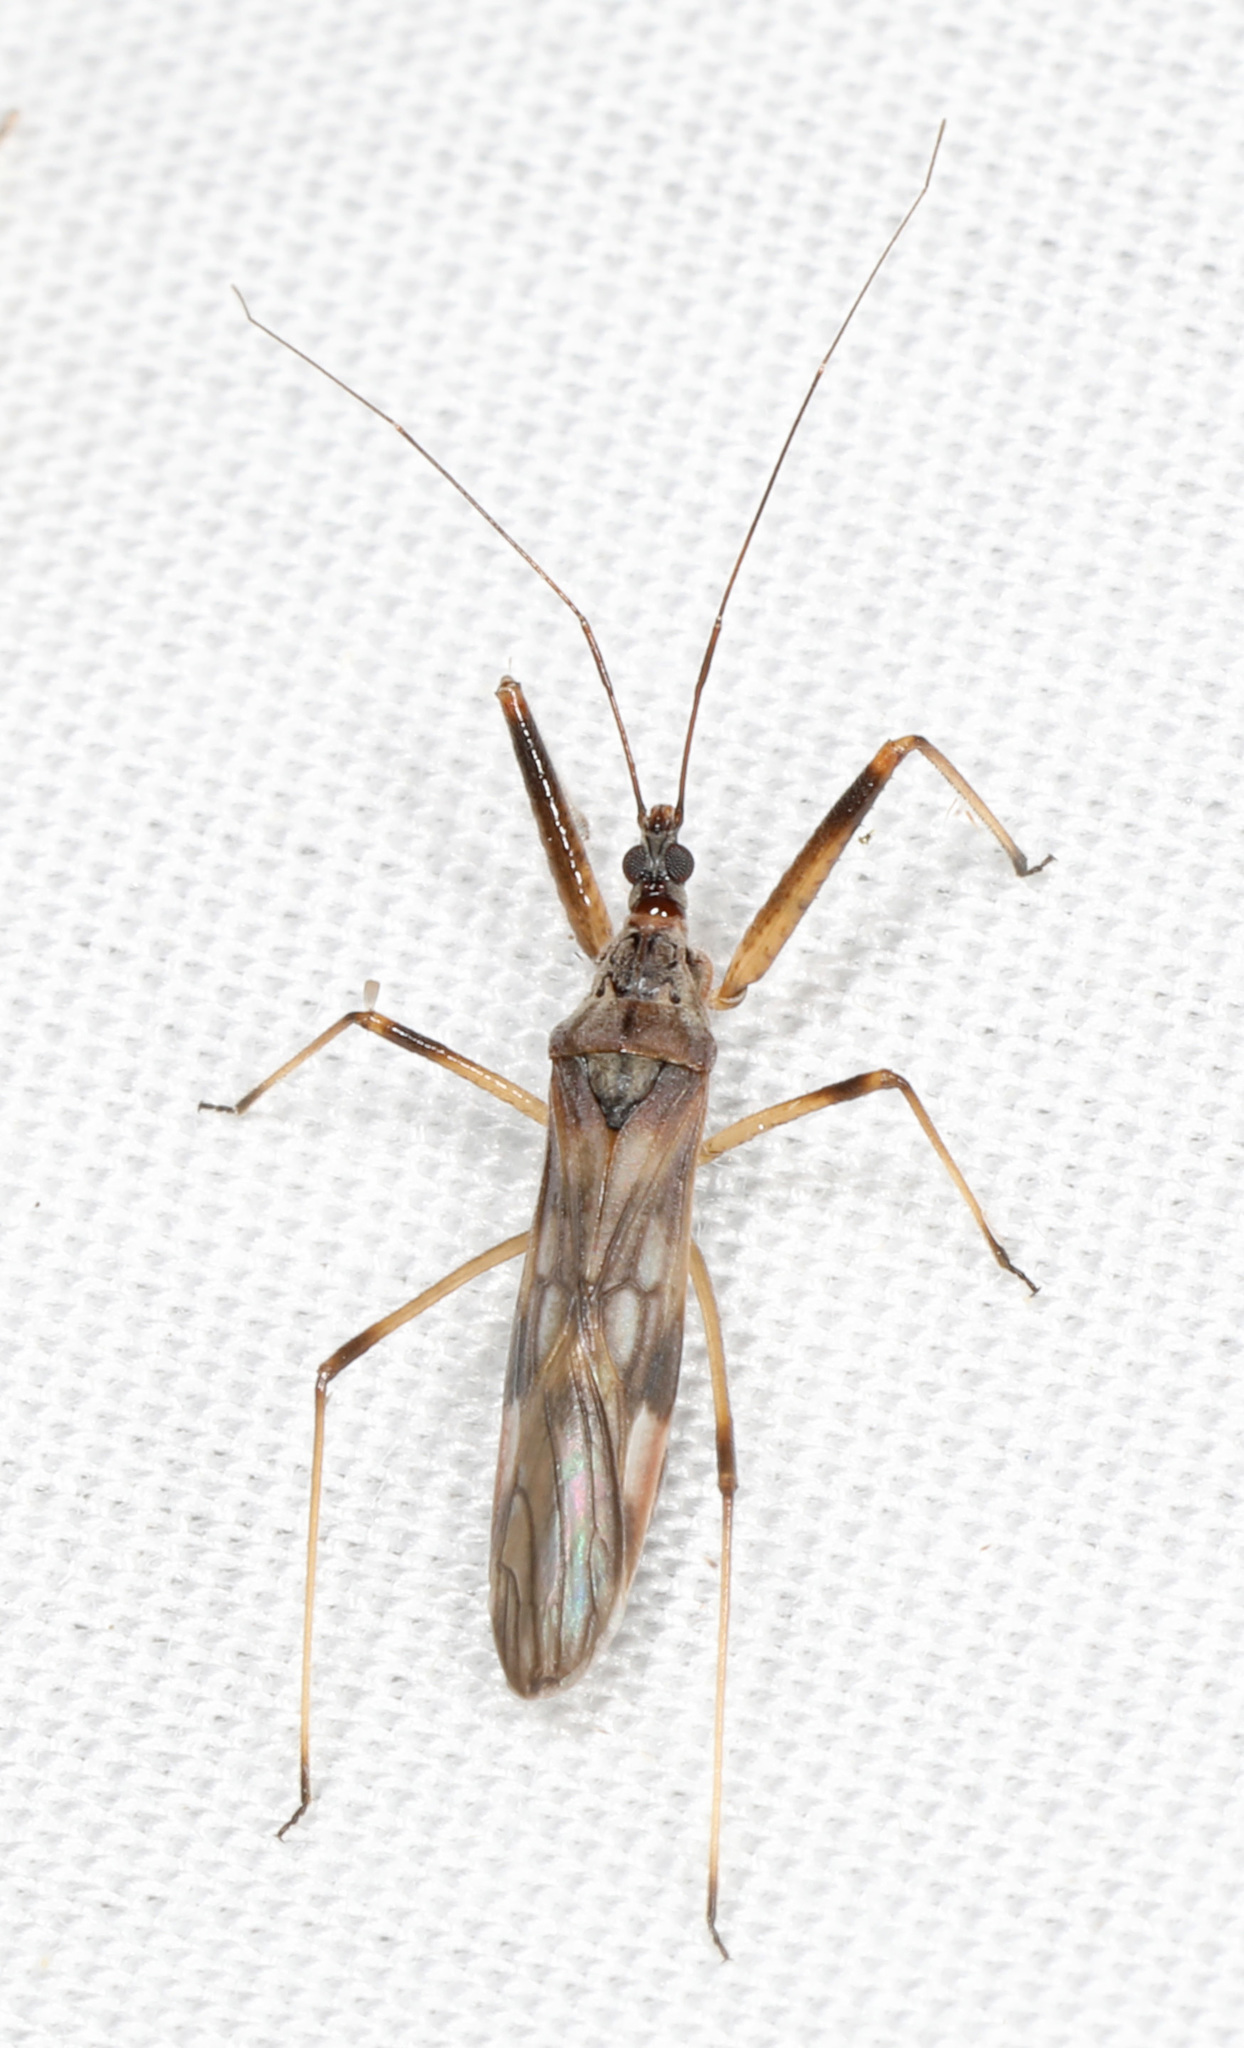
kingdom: Animalia
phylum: Arthropoda
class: Insecta
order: Hemiptera
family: Nabidae
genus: Metatropiphorus
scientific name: Metatropiphorus belfragii
